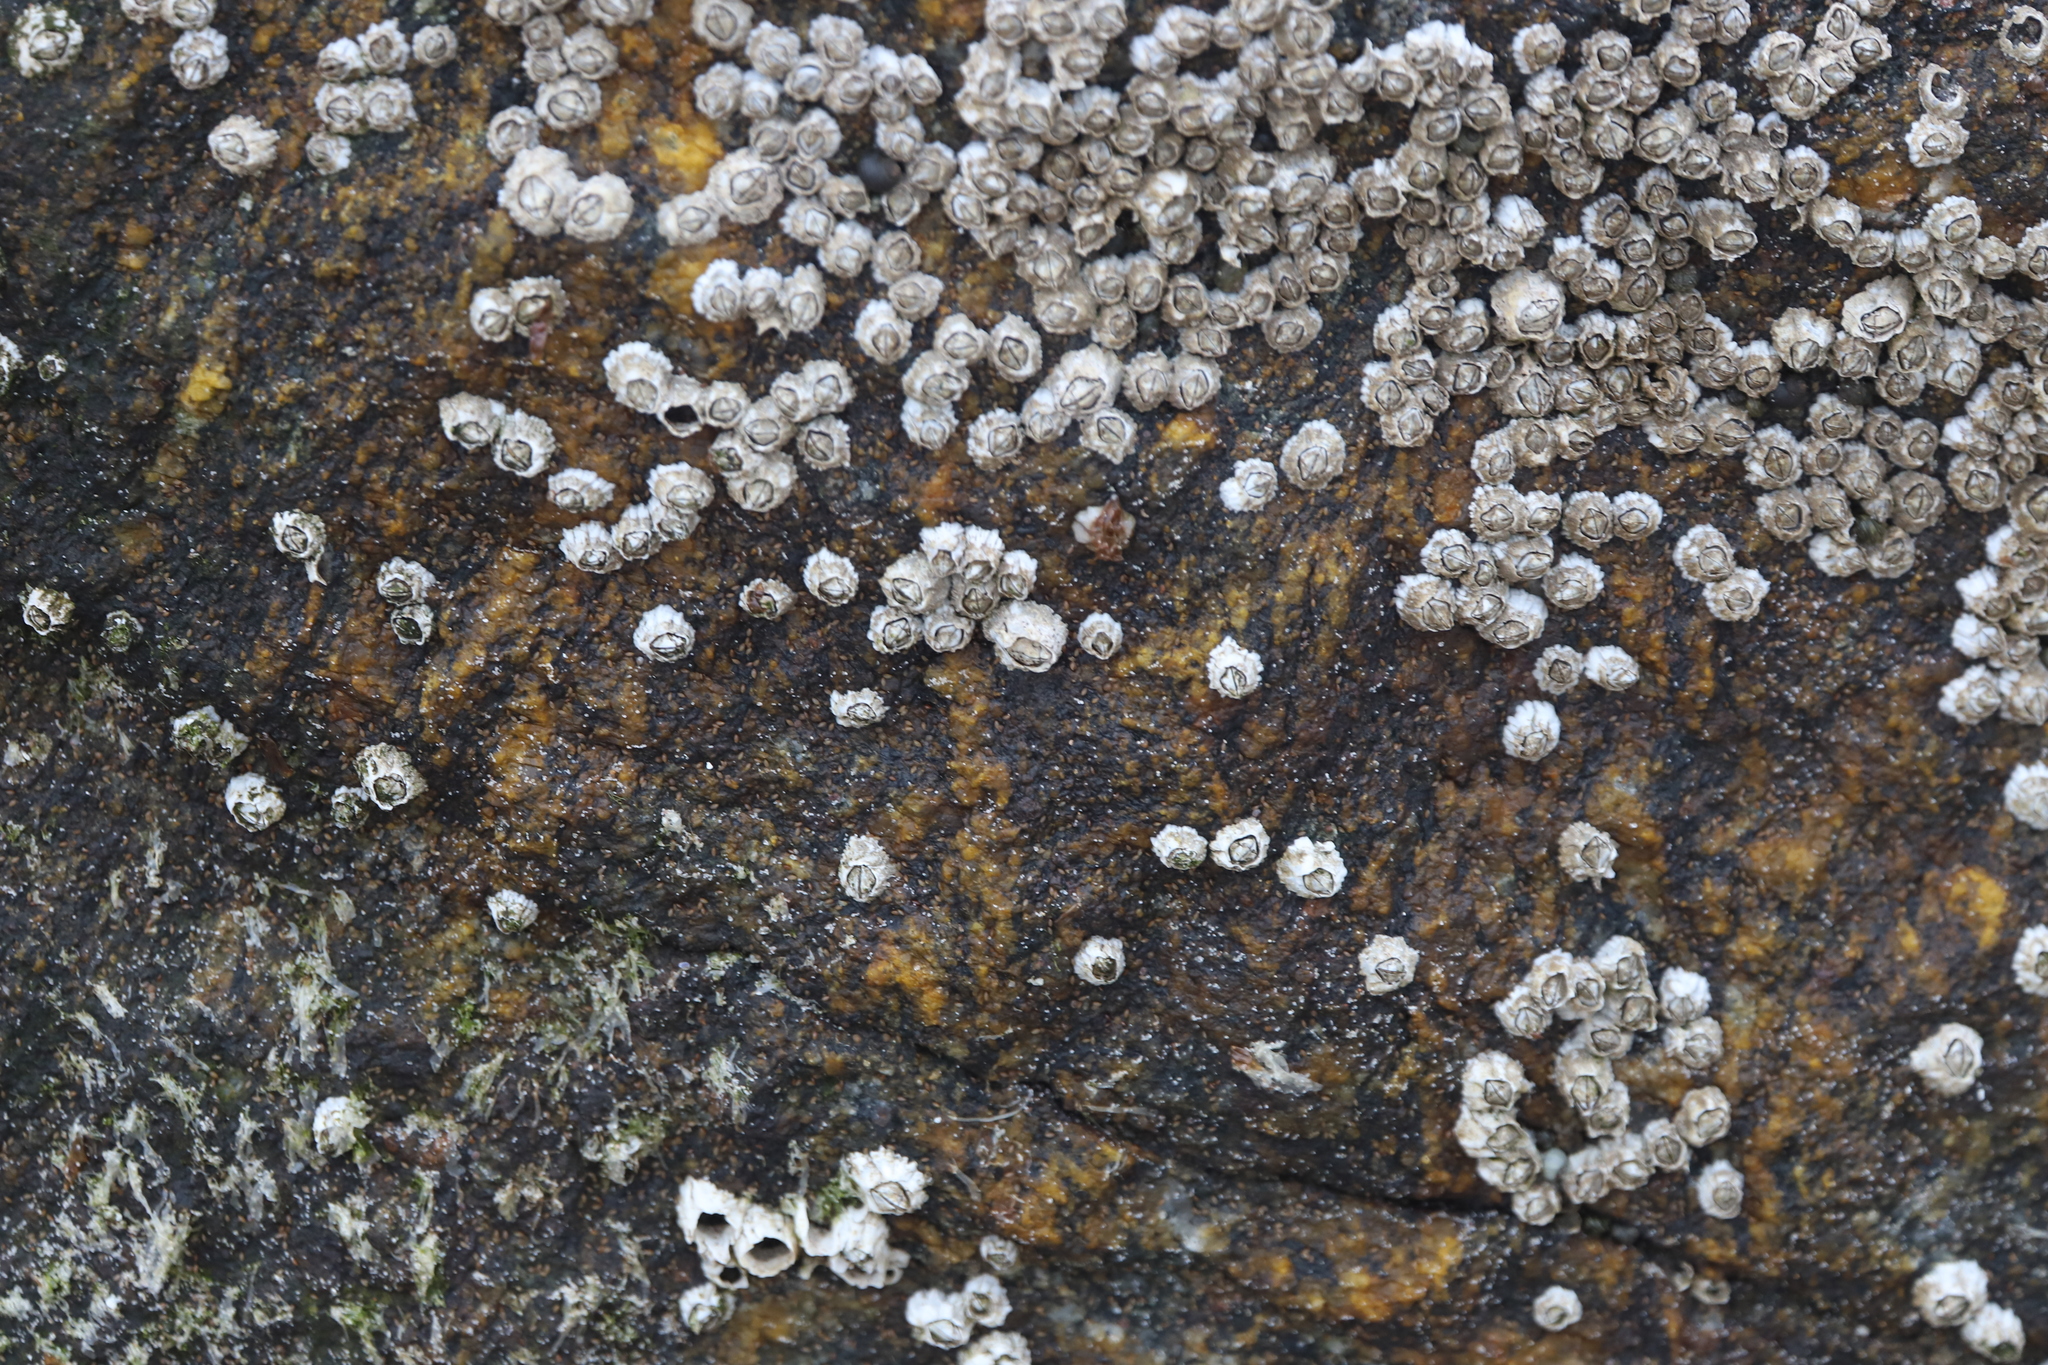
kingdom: Animalia
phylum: Arthropoda
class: Maxillopoda
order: Sessilia
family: Archaeobalanidae
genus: Semibalanus
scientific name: Semibalanus balanoides
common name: Acorn barnacle
